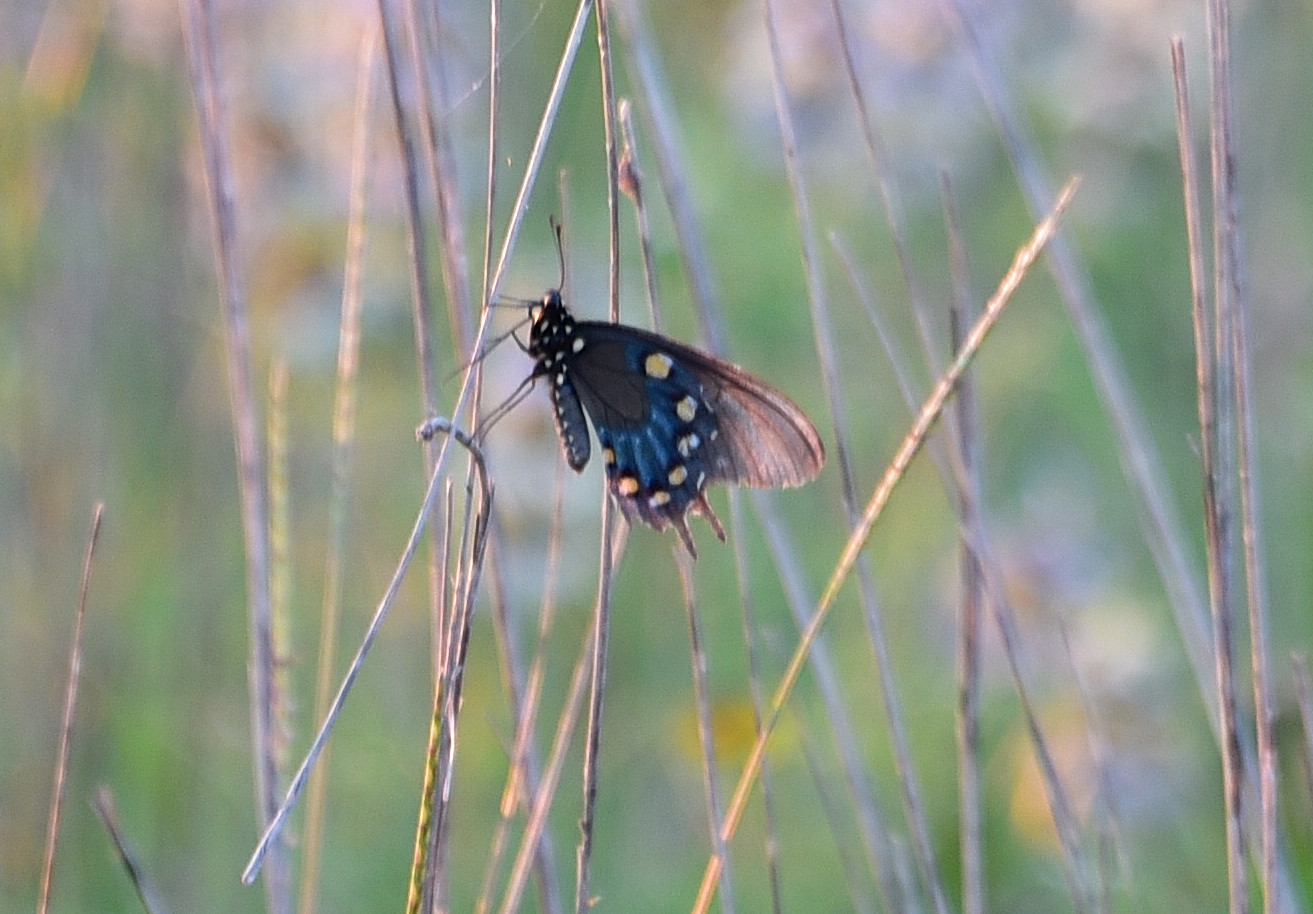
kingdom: Animalia
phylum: Arthropoda
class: Insecta
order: Lepidoptera
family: Papilionidae
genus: Battus
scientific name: Battus philenor
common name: Pipevine swallowtail
